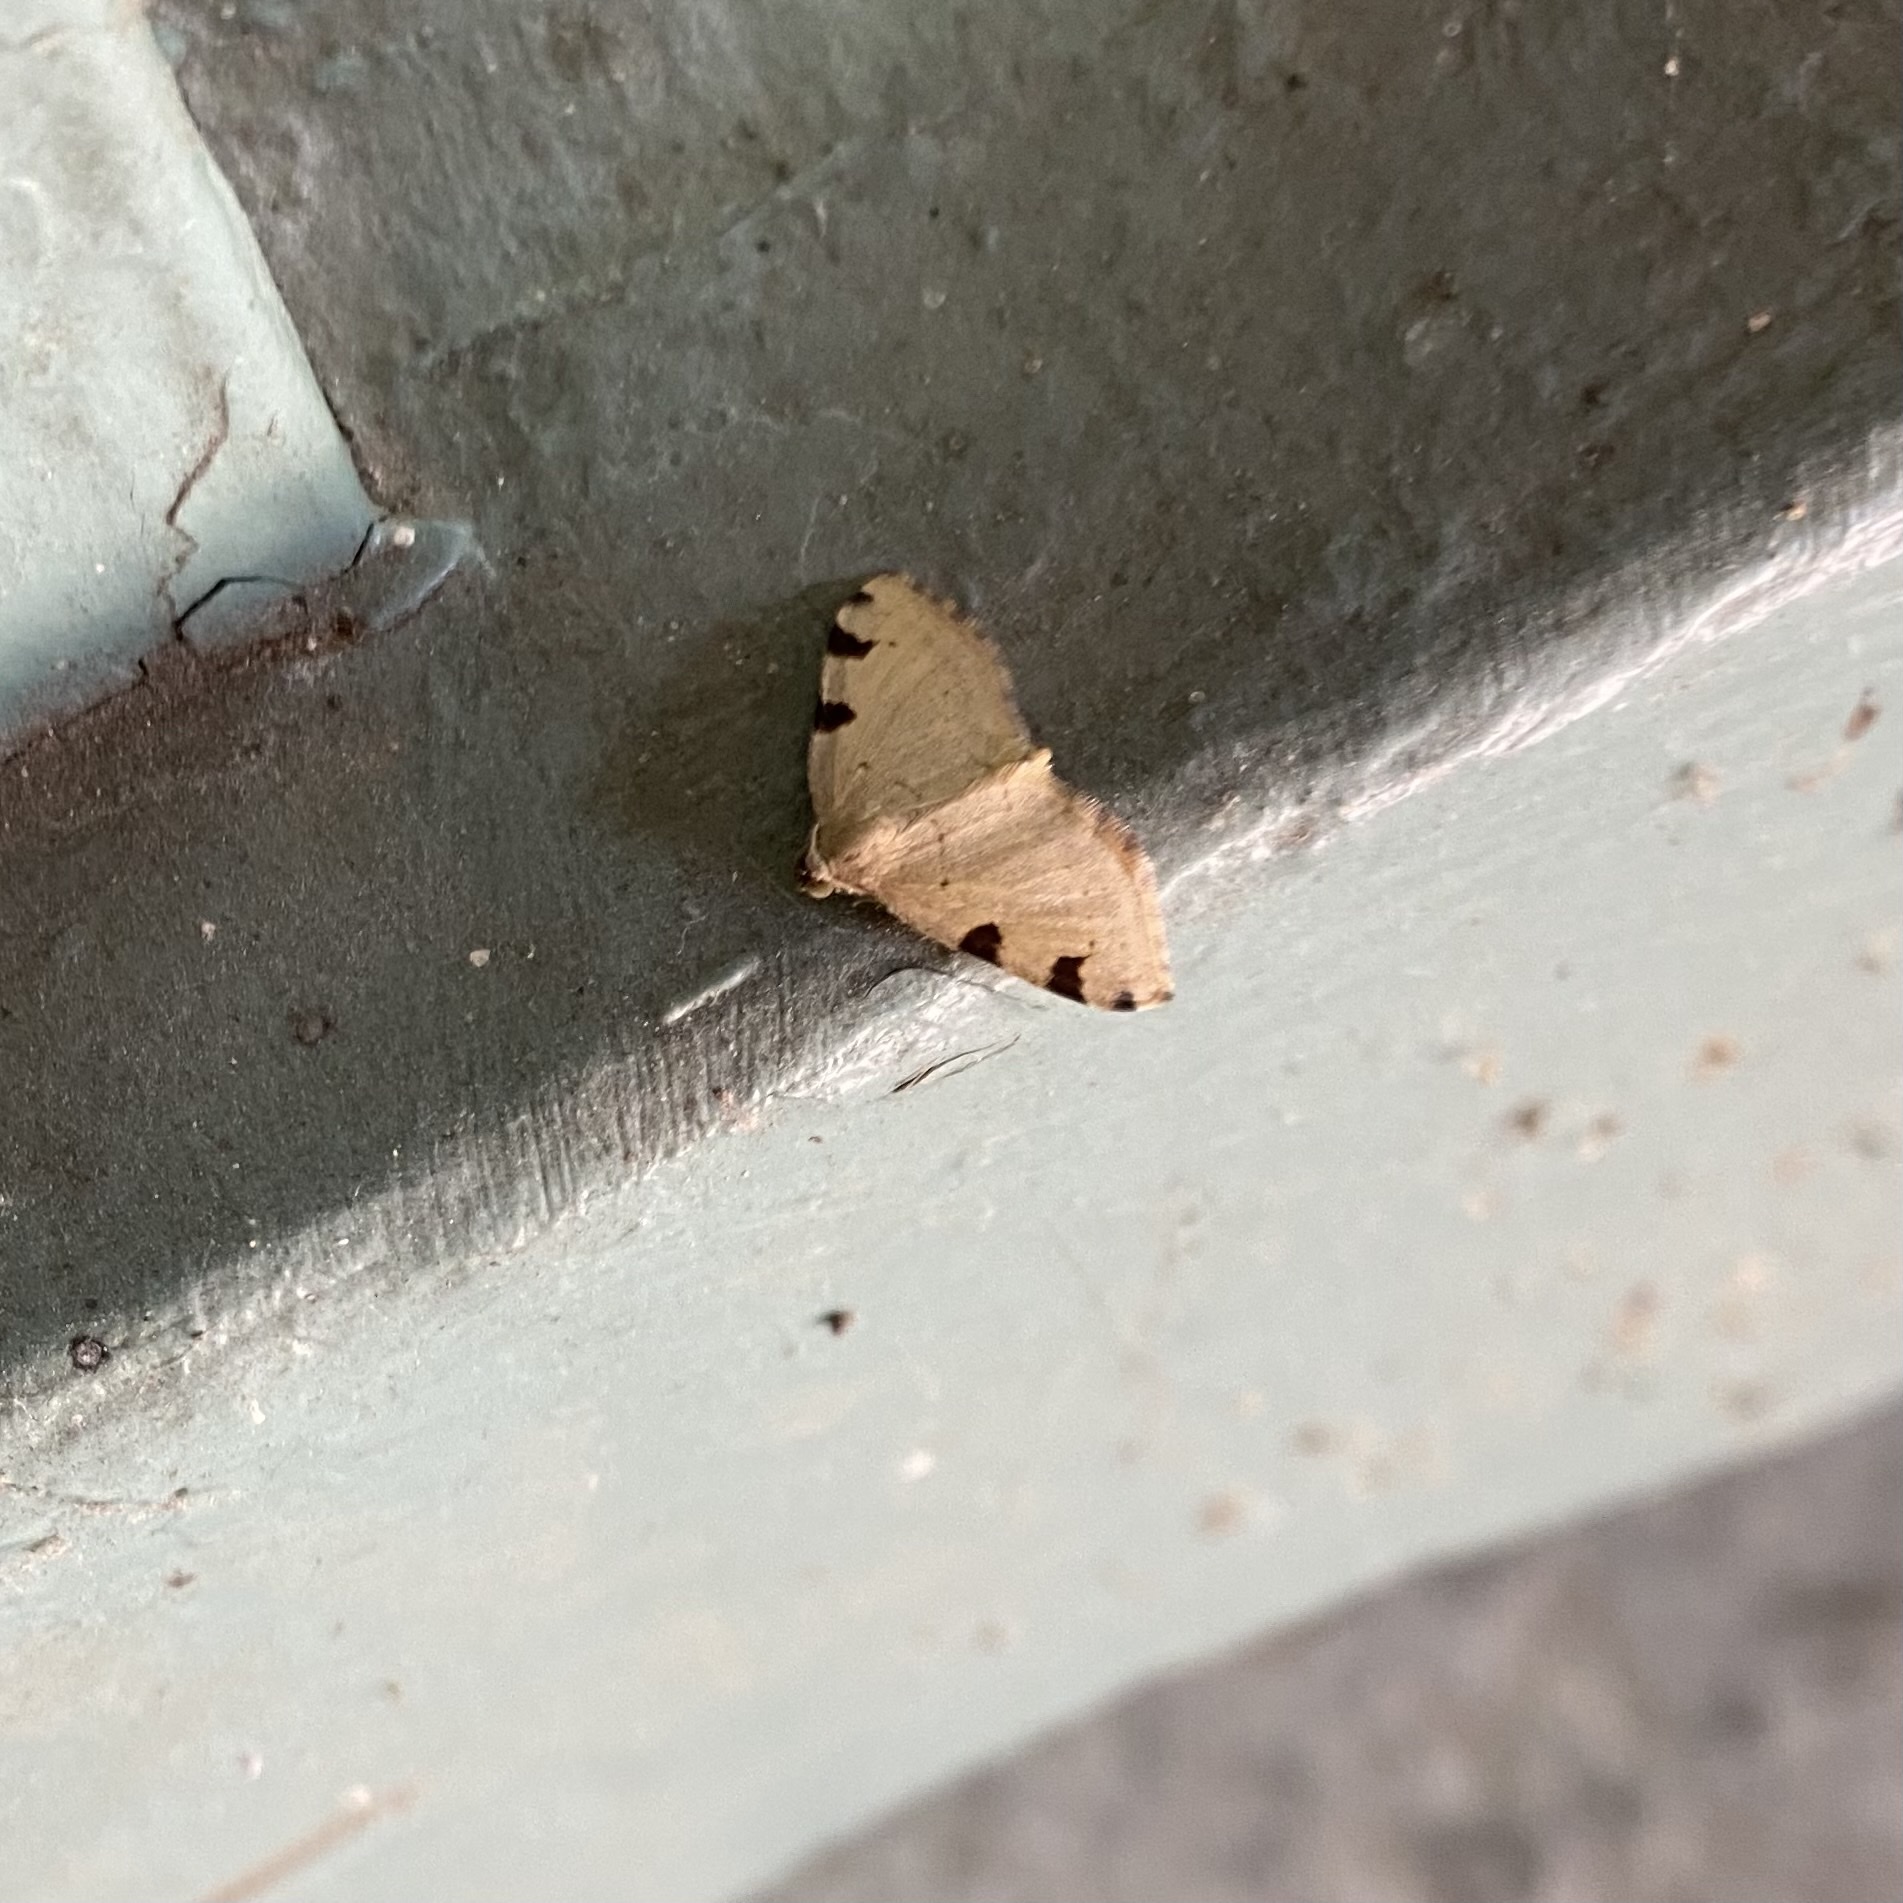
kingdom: Animalia
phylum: Arthropoda
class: Insecta
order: Lepidoptera
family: Geometridae
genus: Heterophleps
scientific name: Heterophleps triguttaria
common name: Three-spotted fillip
